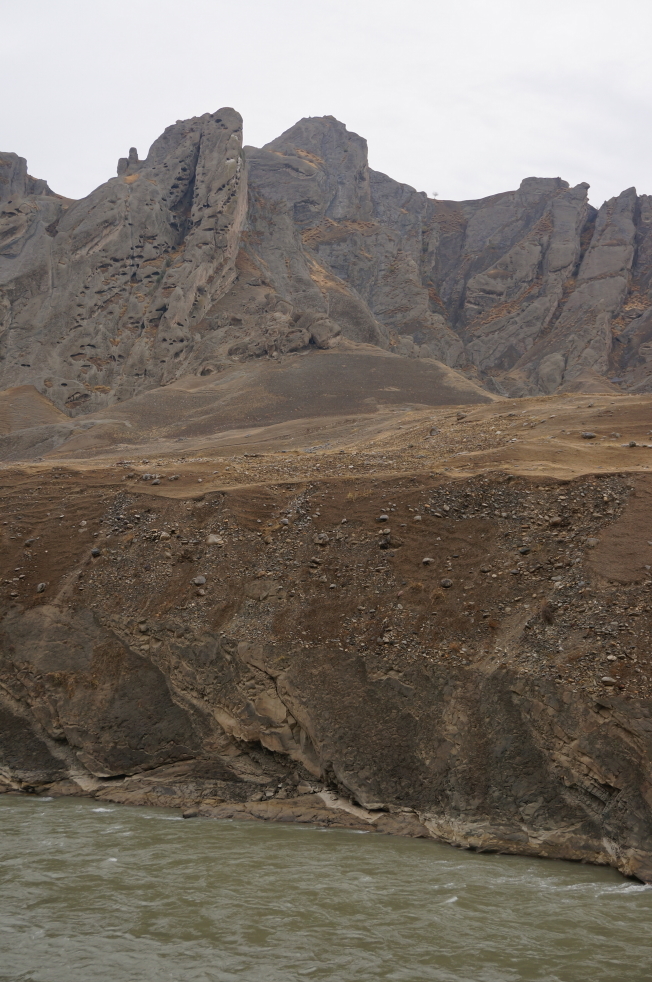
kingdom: Animalia
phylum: Chordata
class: Aves
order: Accipitriformes
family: Accipitridae
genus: Gyps
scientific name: Gyps himalayensis
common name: Himalayan griffon
